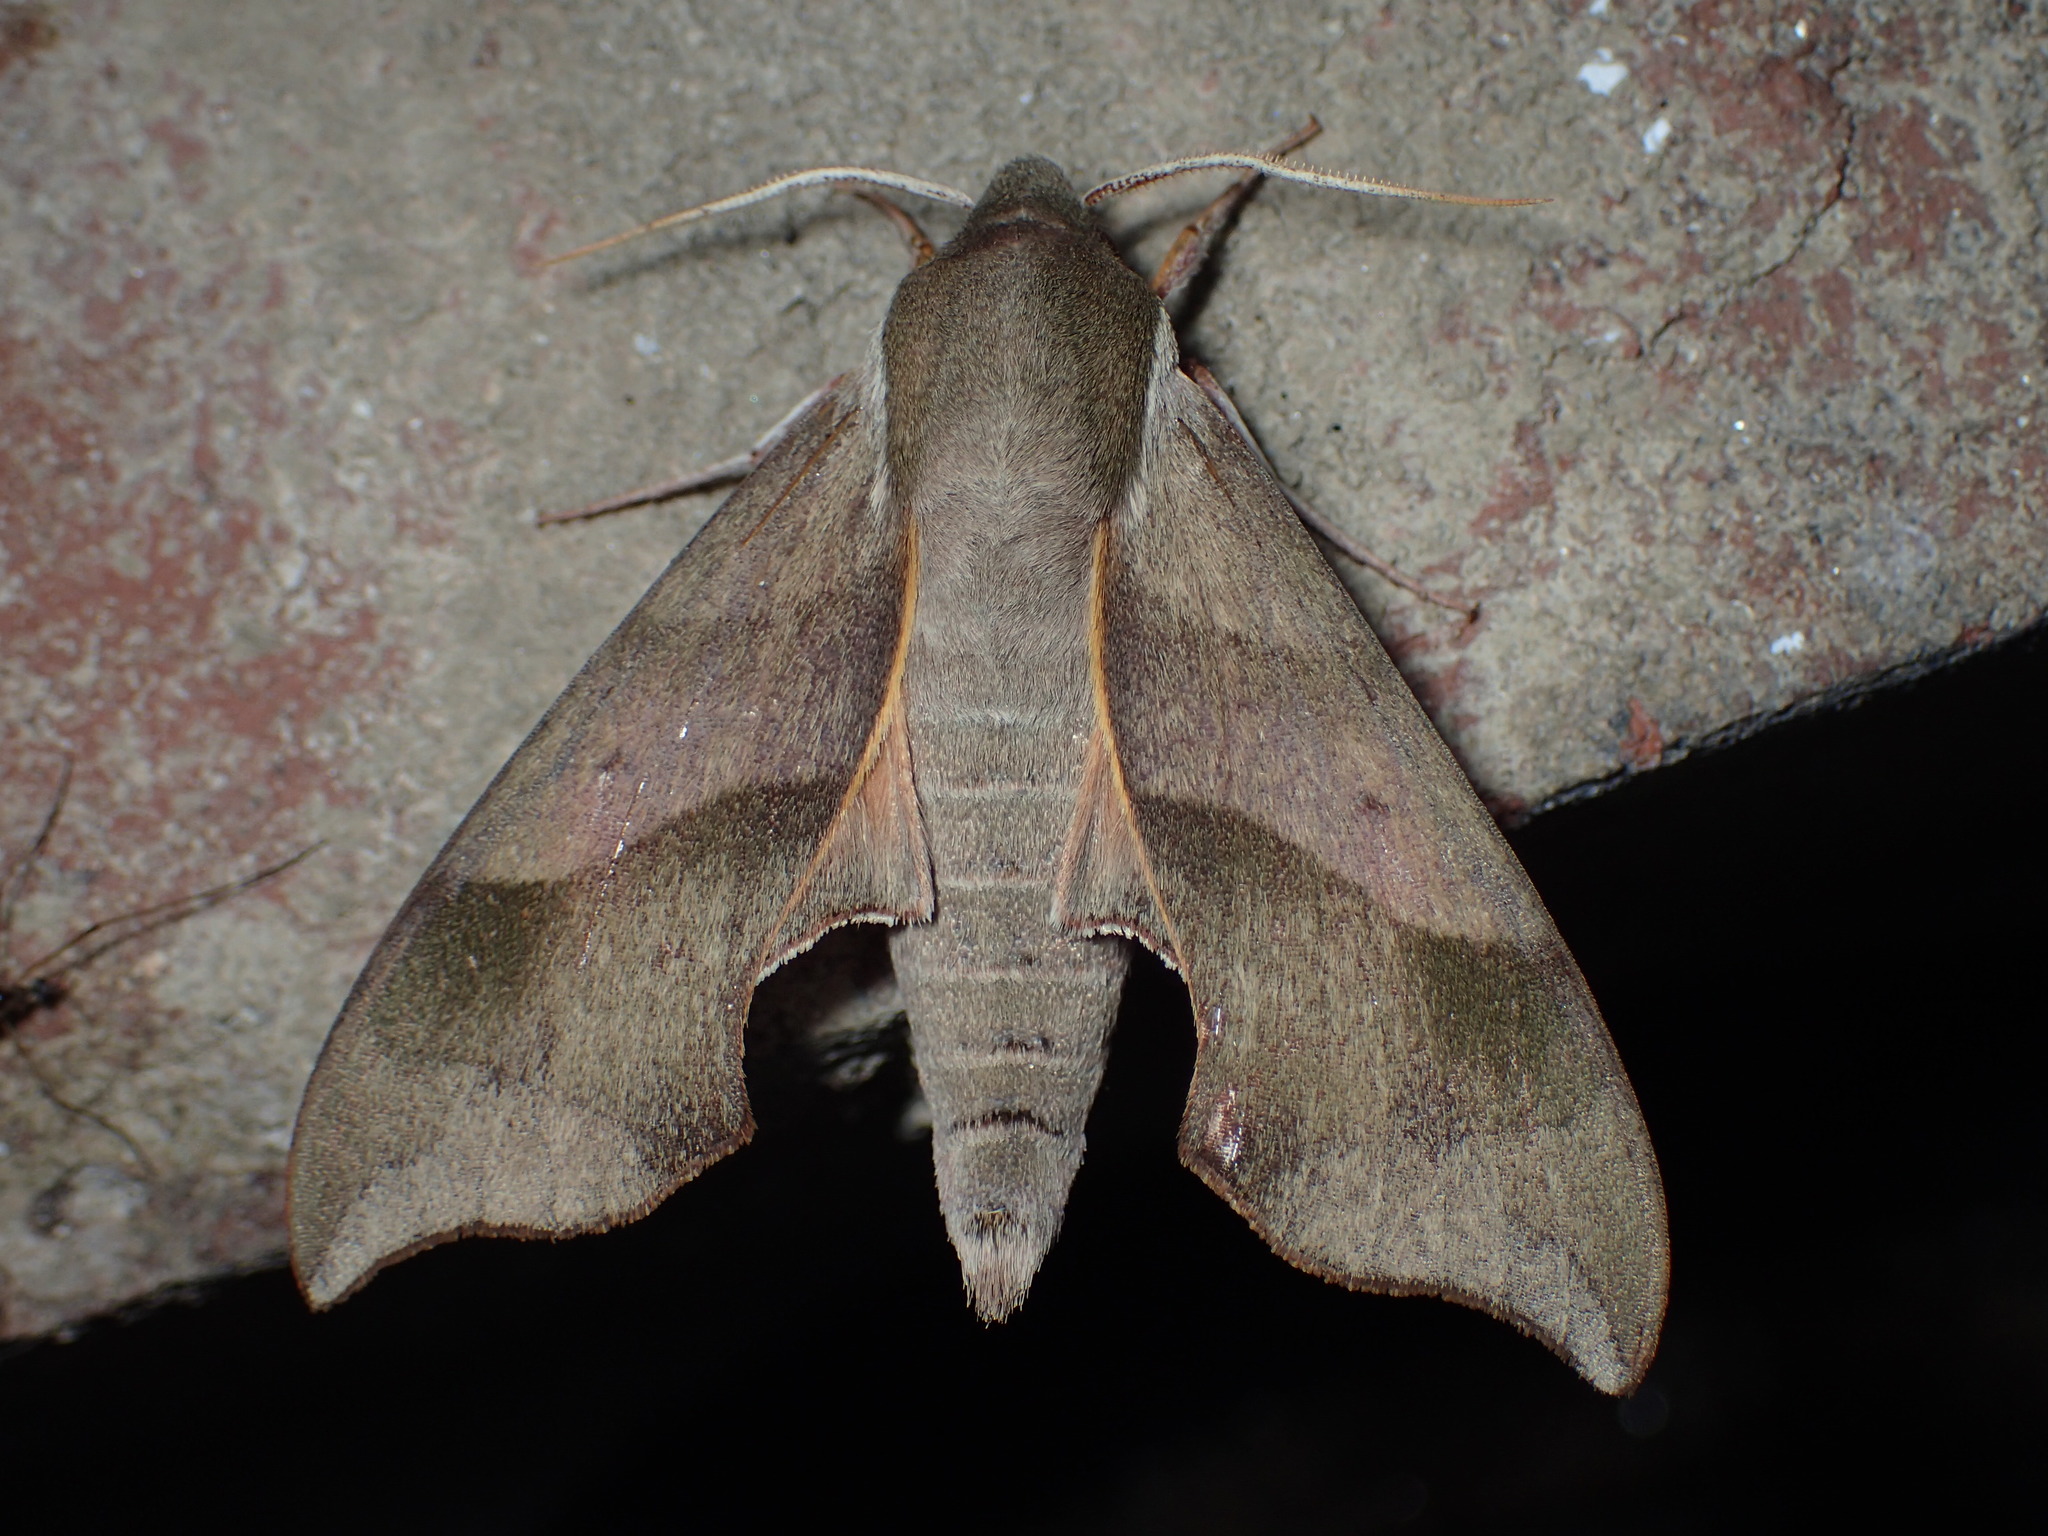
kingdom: Animalia
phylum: Arthropoda
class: Insecta
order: Lepidoptera
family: Sphingidae
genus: Darapsa
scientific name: Darapsa myron
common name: Hog sphinx
